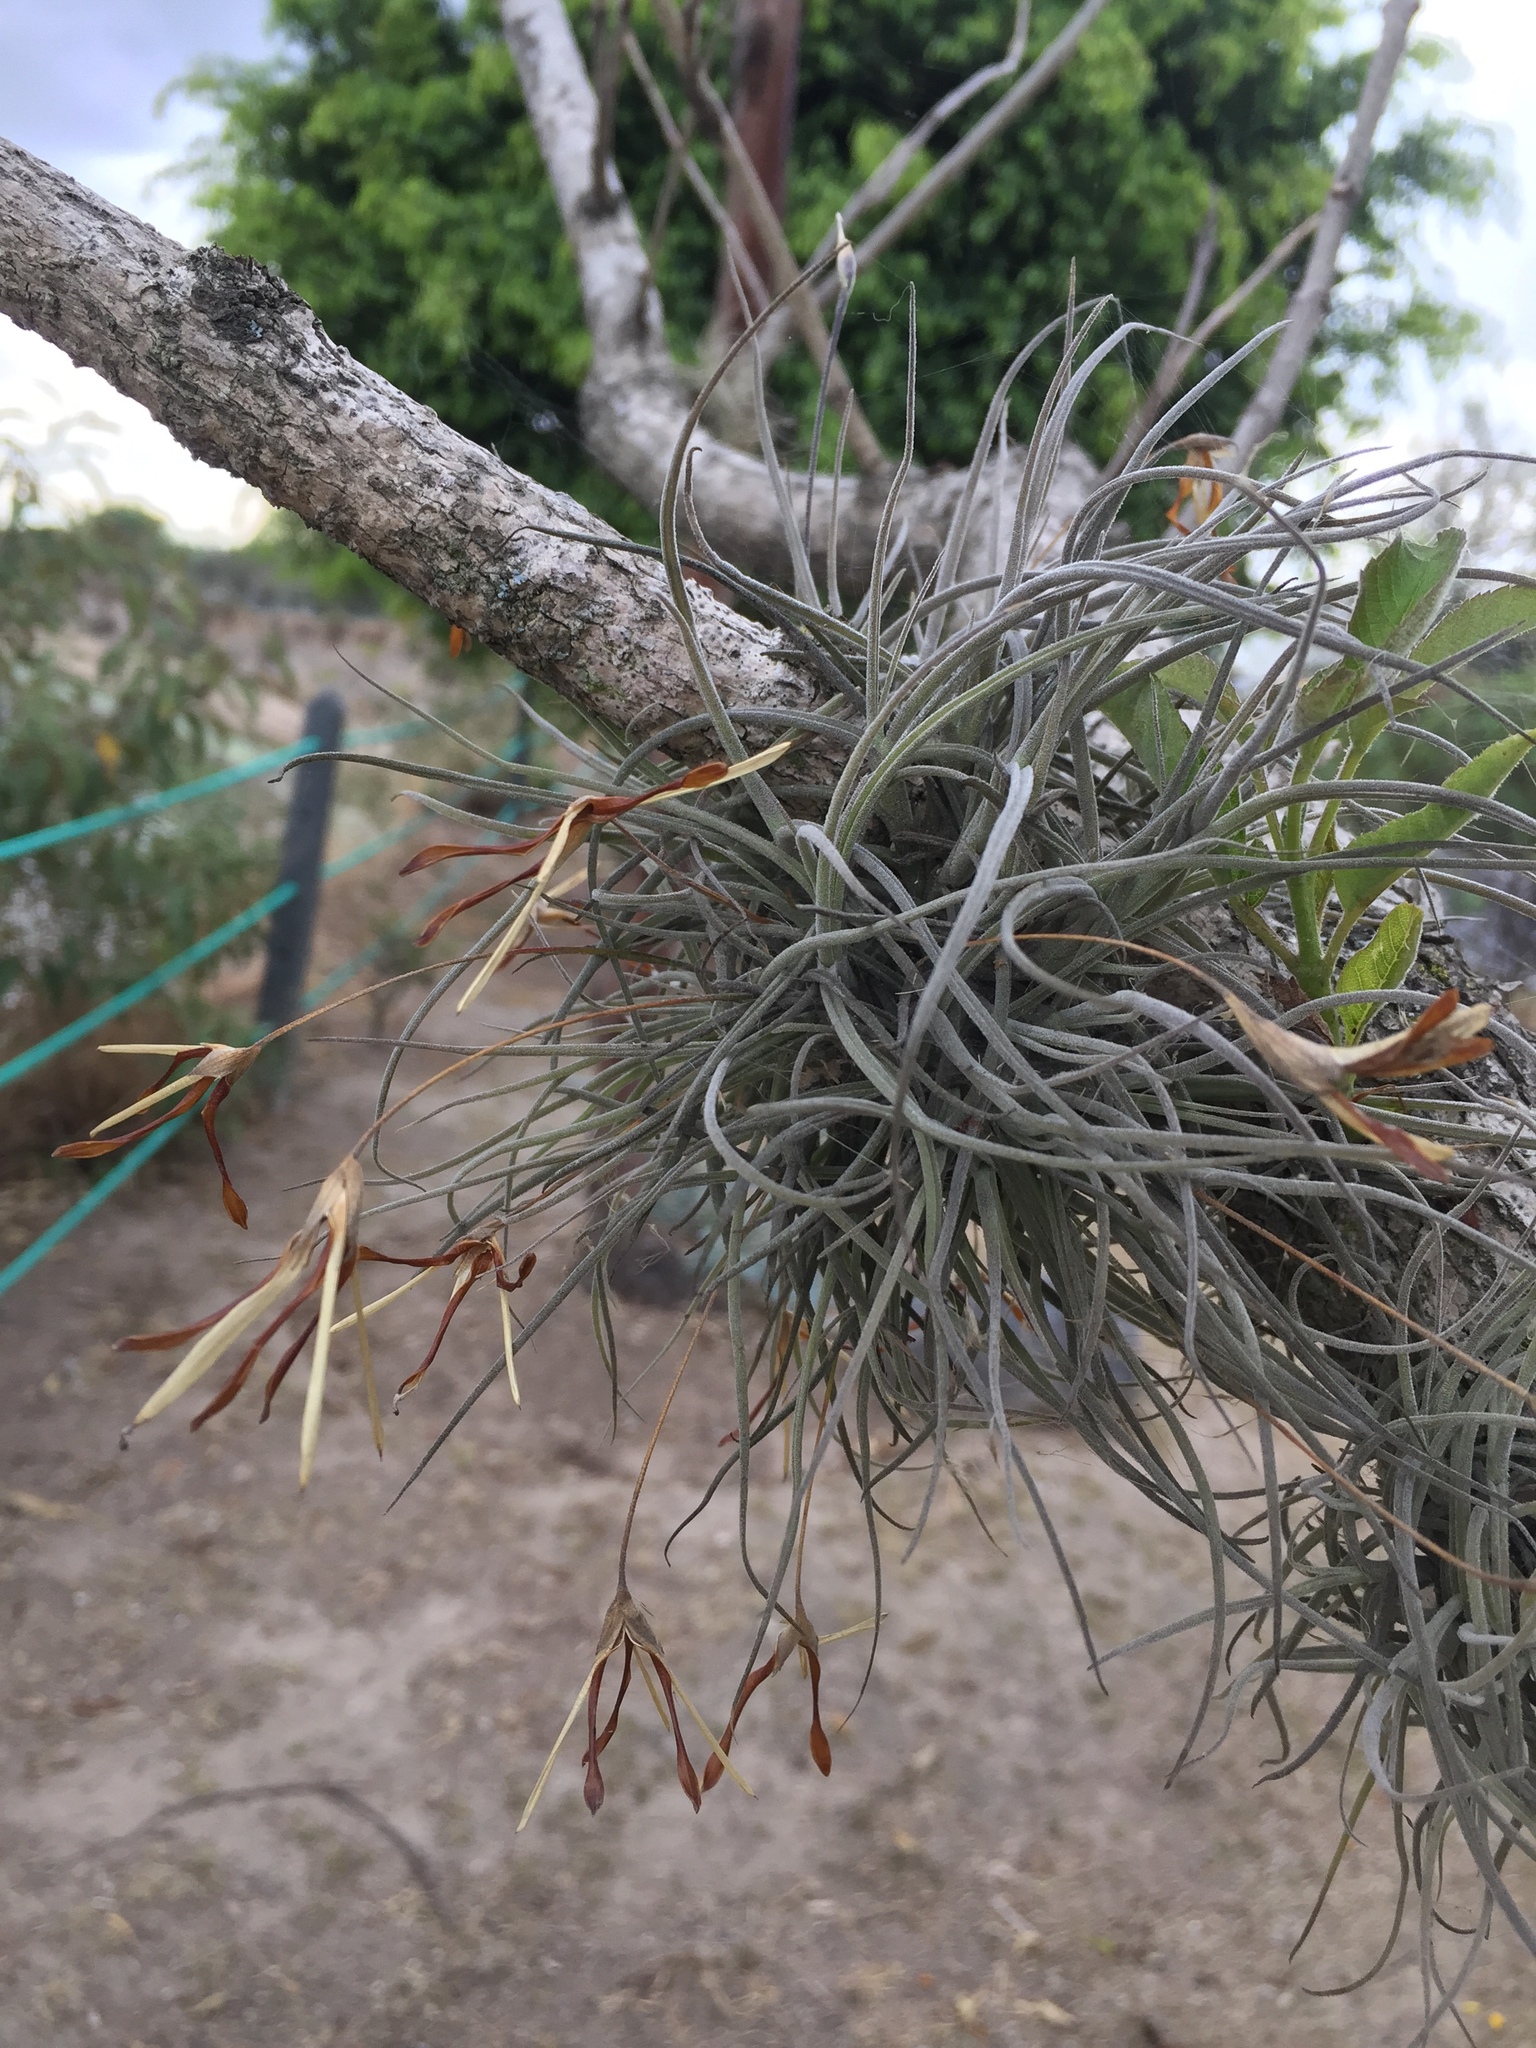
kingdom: Plantae
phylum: Tracheophyta
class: Liliopsida
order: Poales
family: Bromeliaceae
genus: Tillandsia
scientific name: Tillandsia recurvata
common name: Small ballmoss
